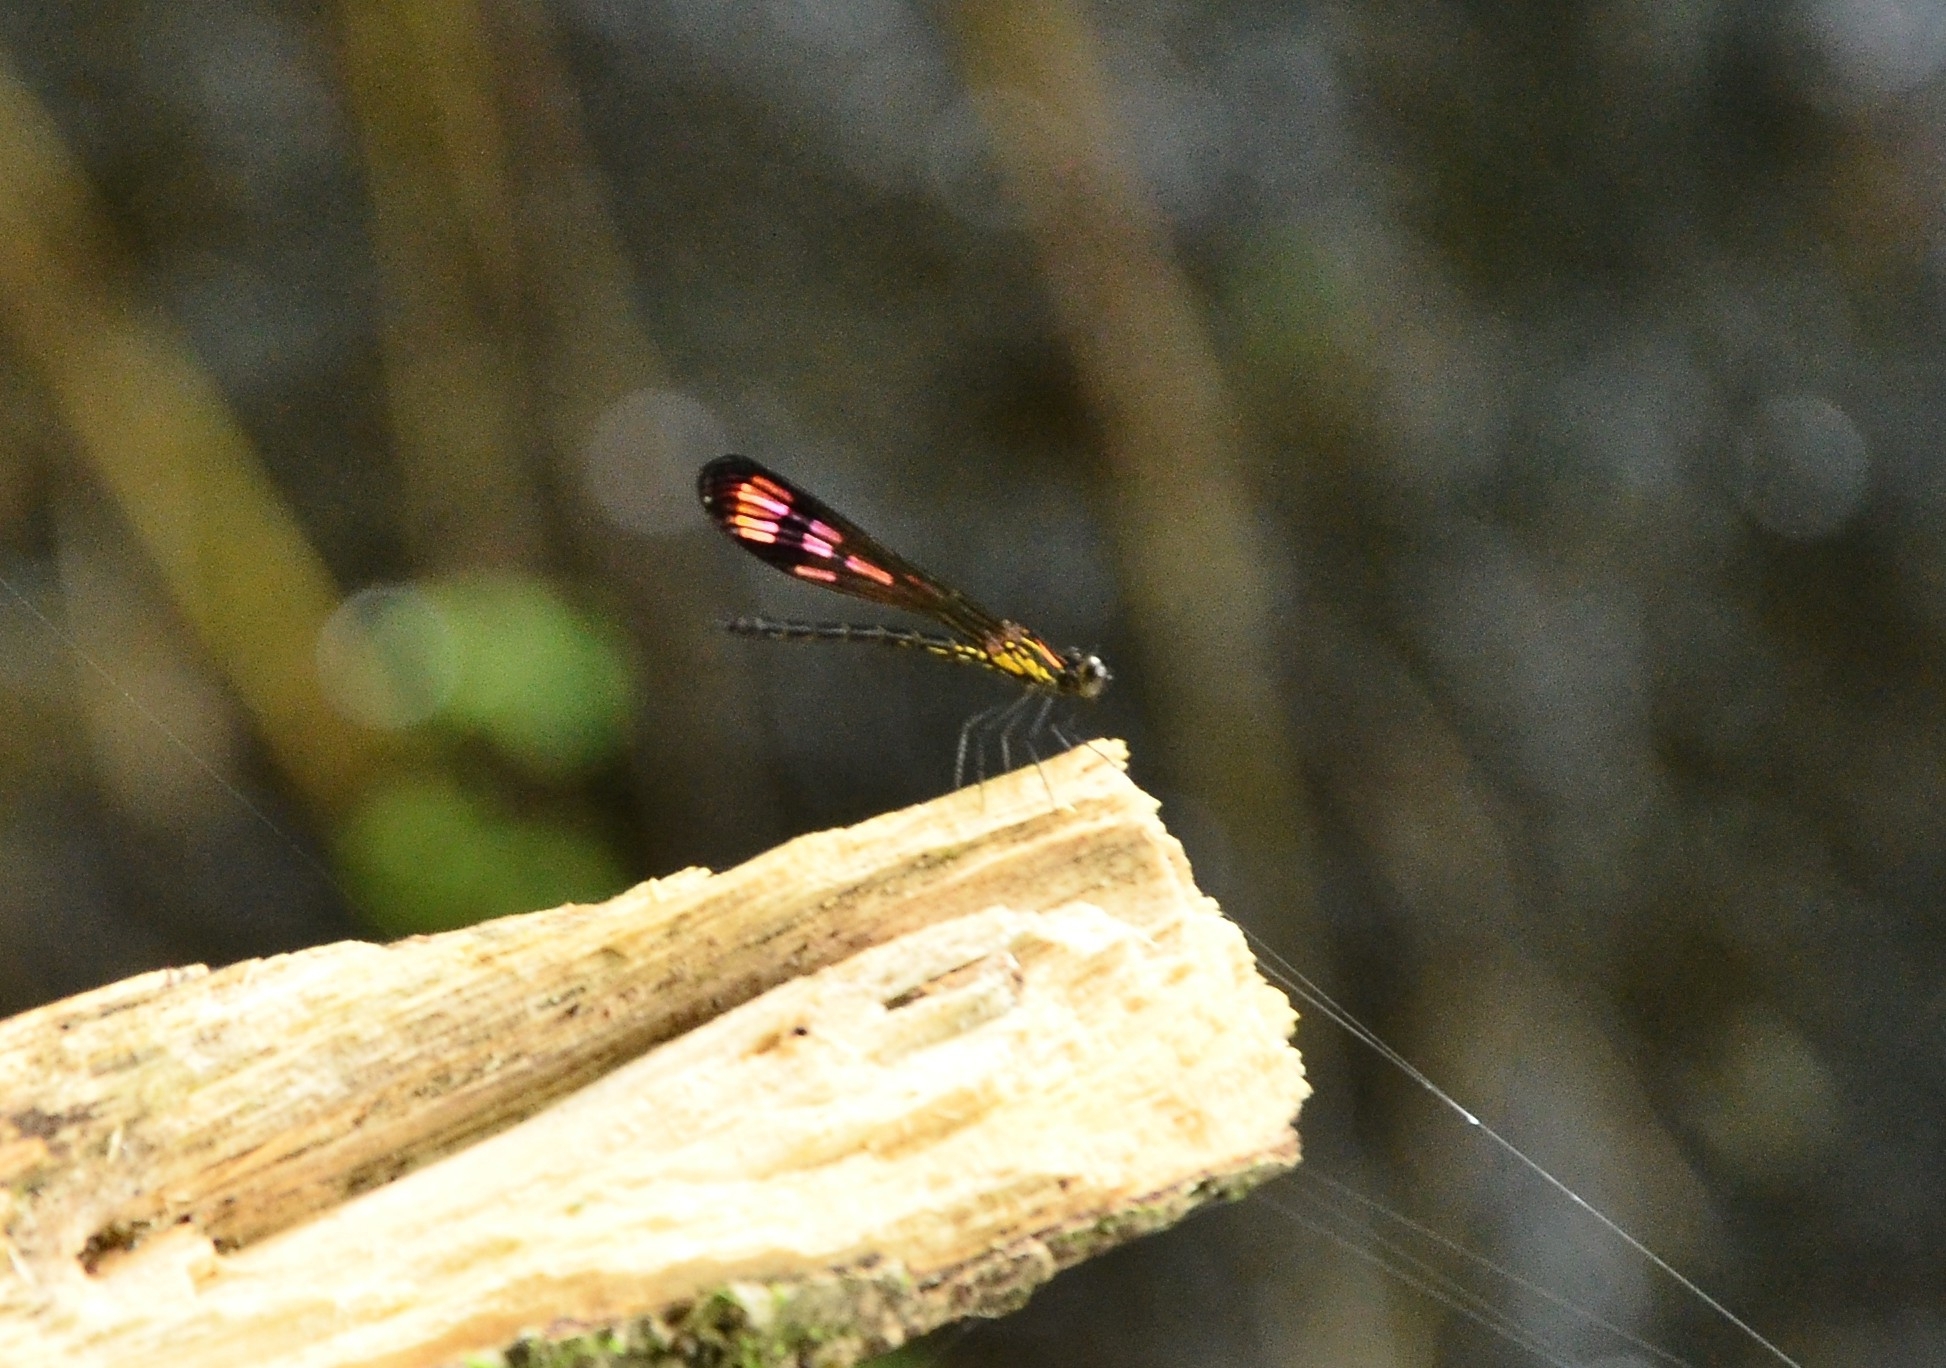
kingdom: Animalia
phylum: Arthropoda
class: Insecta
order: Odonata
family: Chlorocyphidae
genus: Heliocypha
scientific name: Heliocypha bisignata
